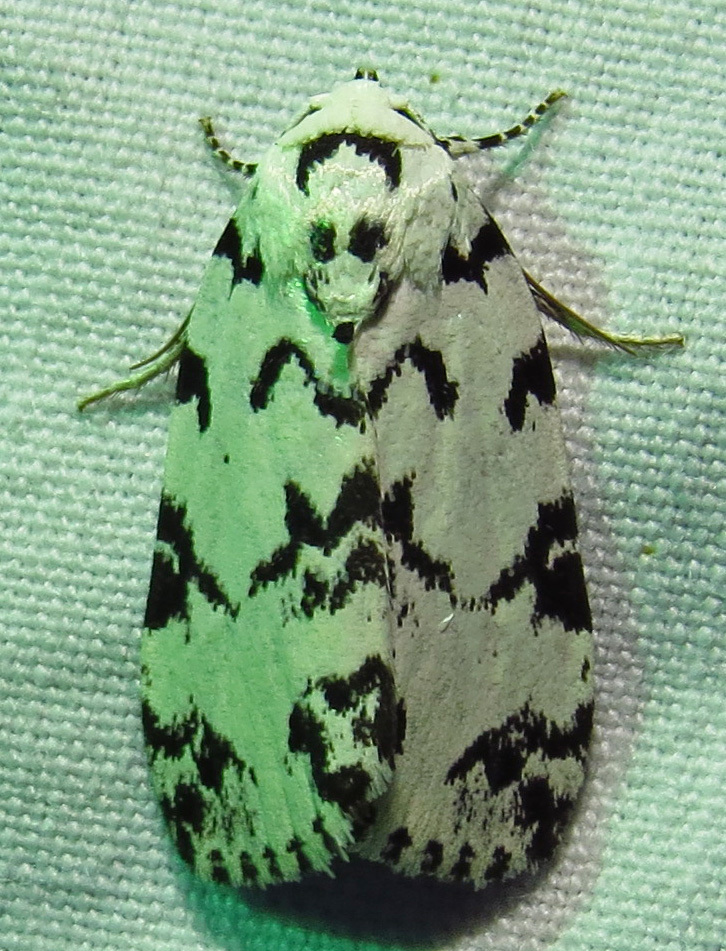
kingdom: Animalia
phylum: Arthropoda
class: Insecta
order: Lepidoptera
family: Noctuidae
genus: Polygrammate
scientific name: Polygrammate hebraeicum
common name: Hebrew moth
